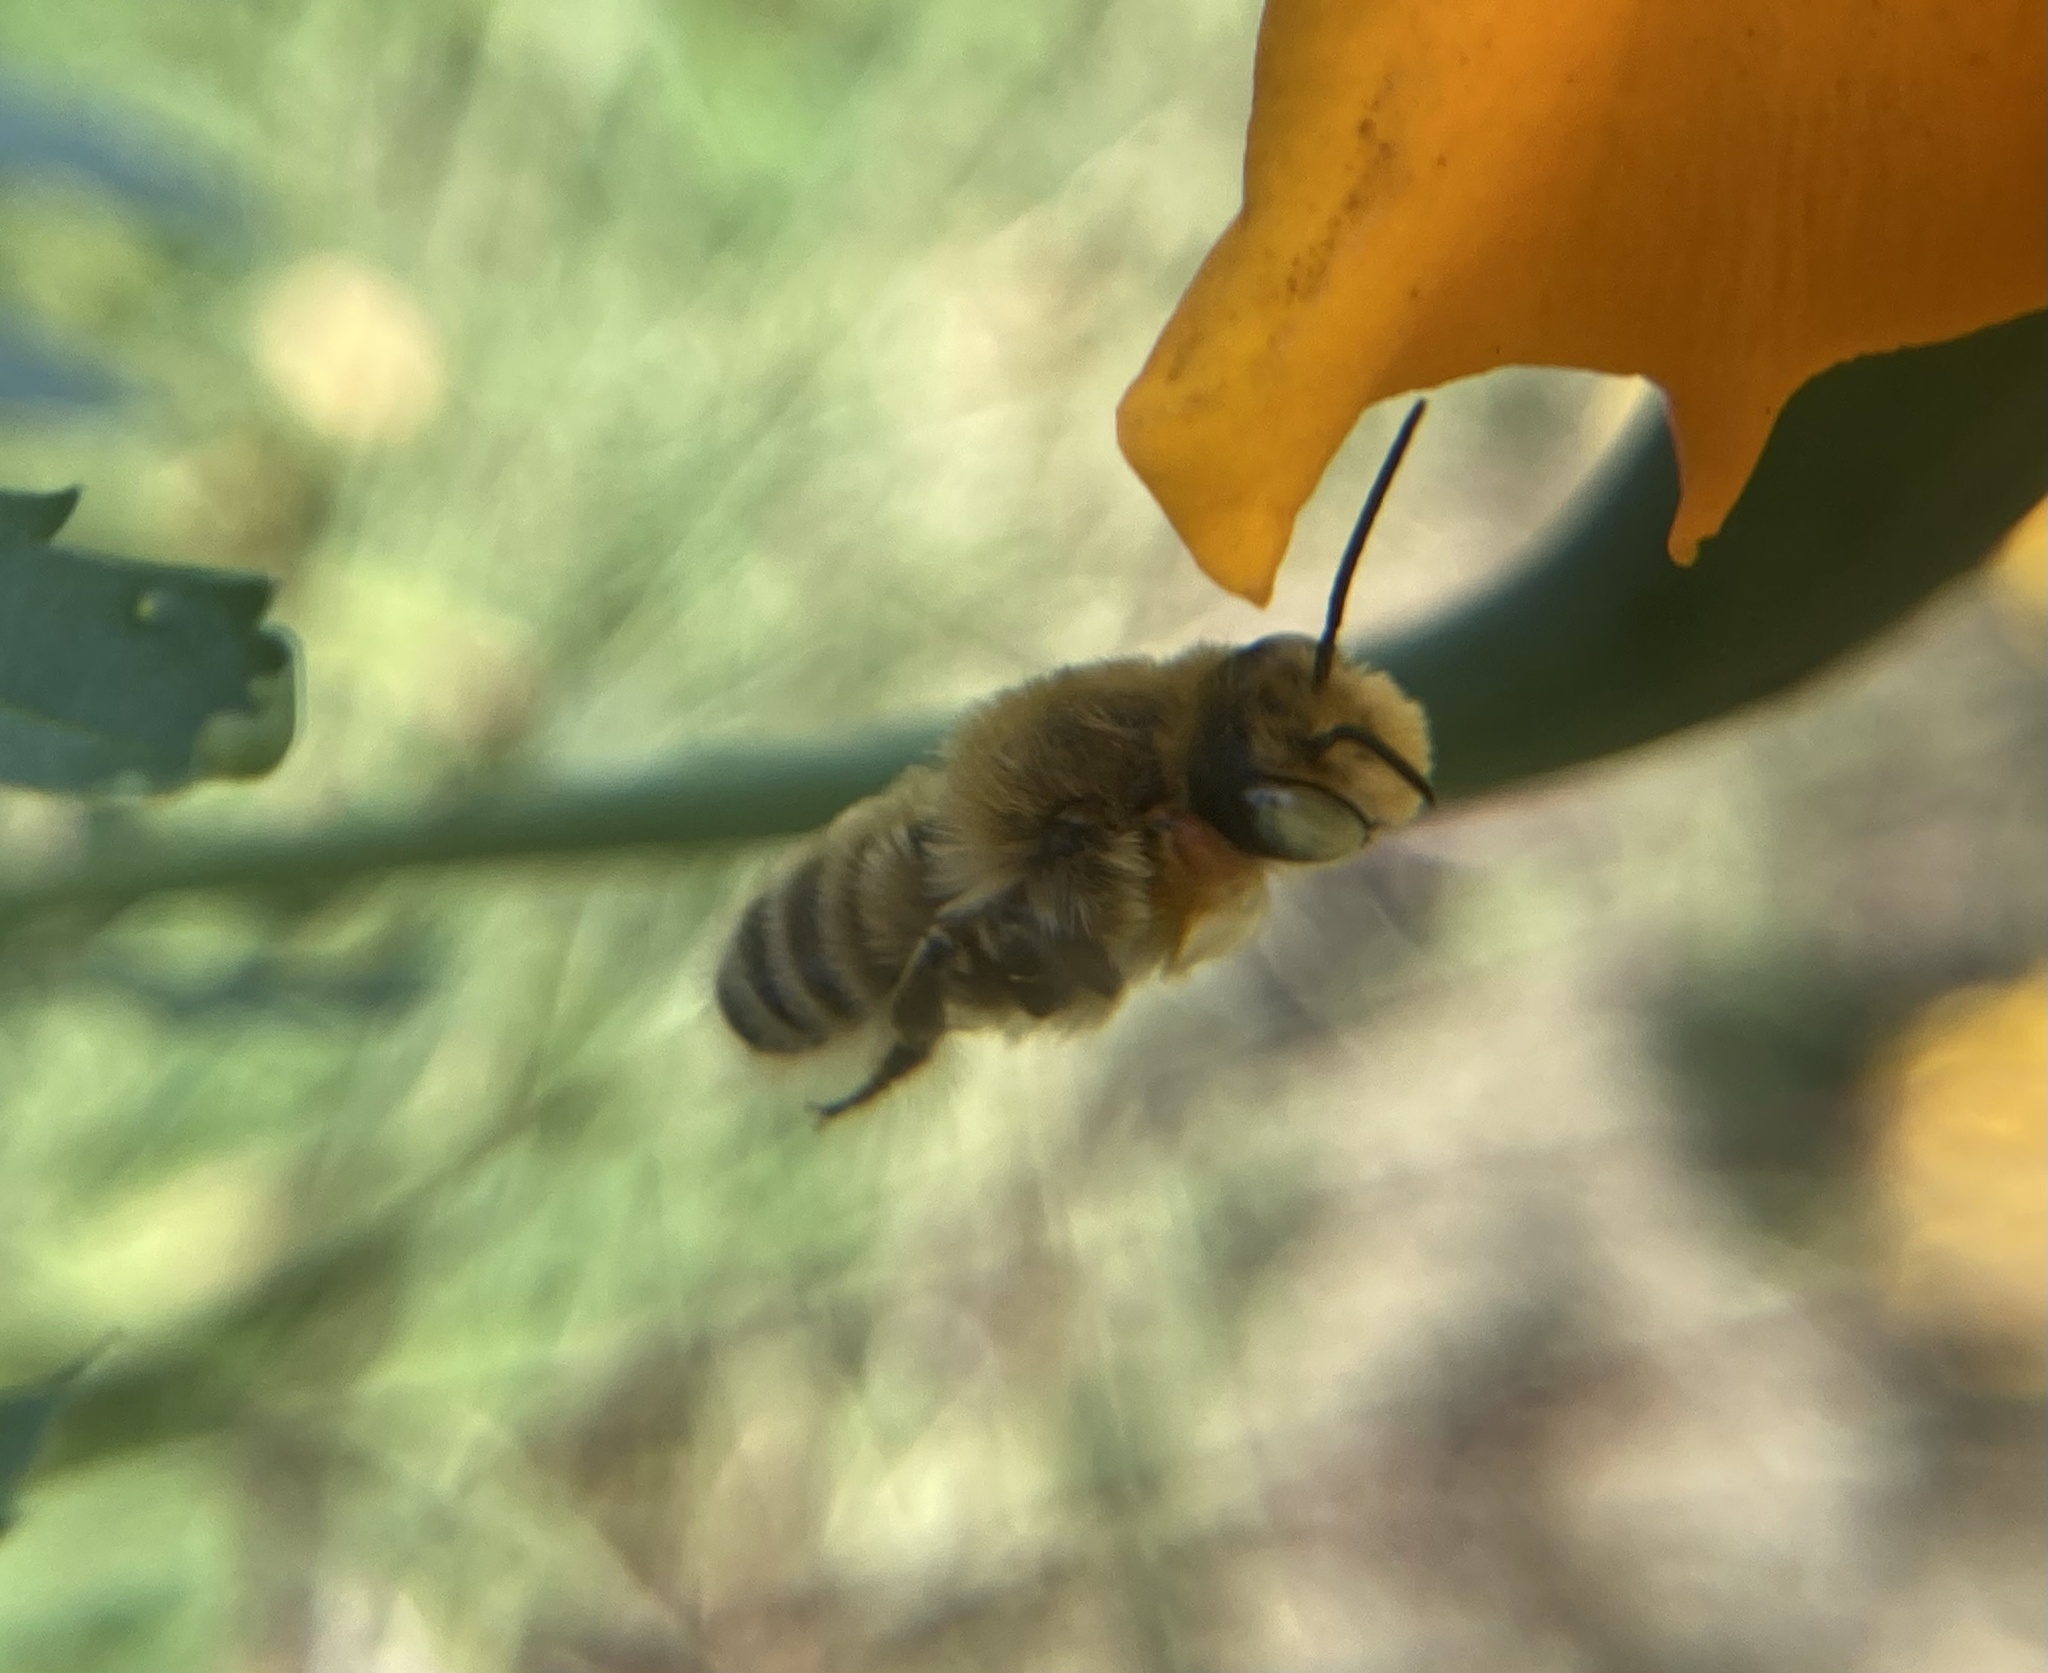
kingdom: Animalia
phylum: Arthropoda
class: Insecta
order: Hymenoptera
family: Megachilidae
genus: Megachile
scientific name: Megachile latimanus
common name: Leafcutting bee
